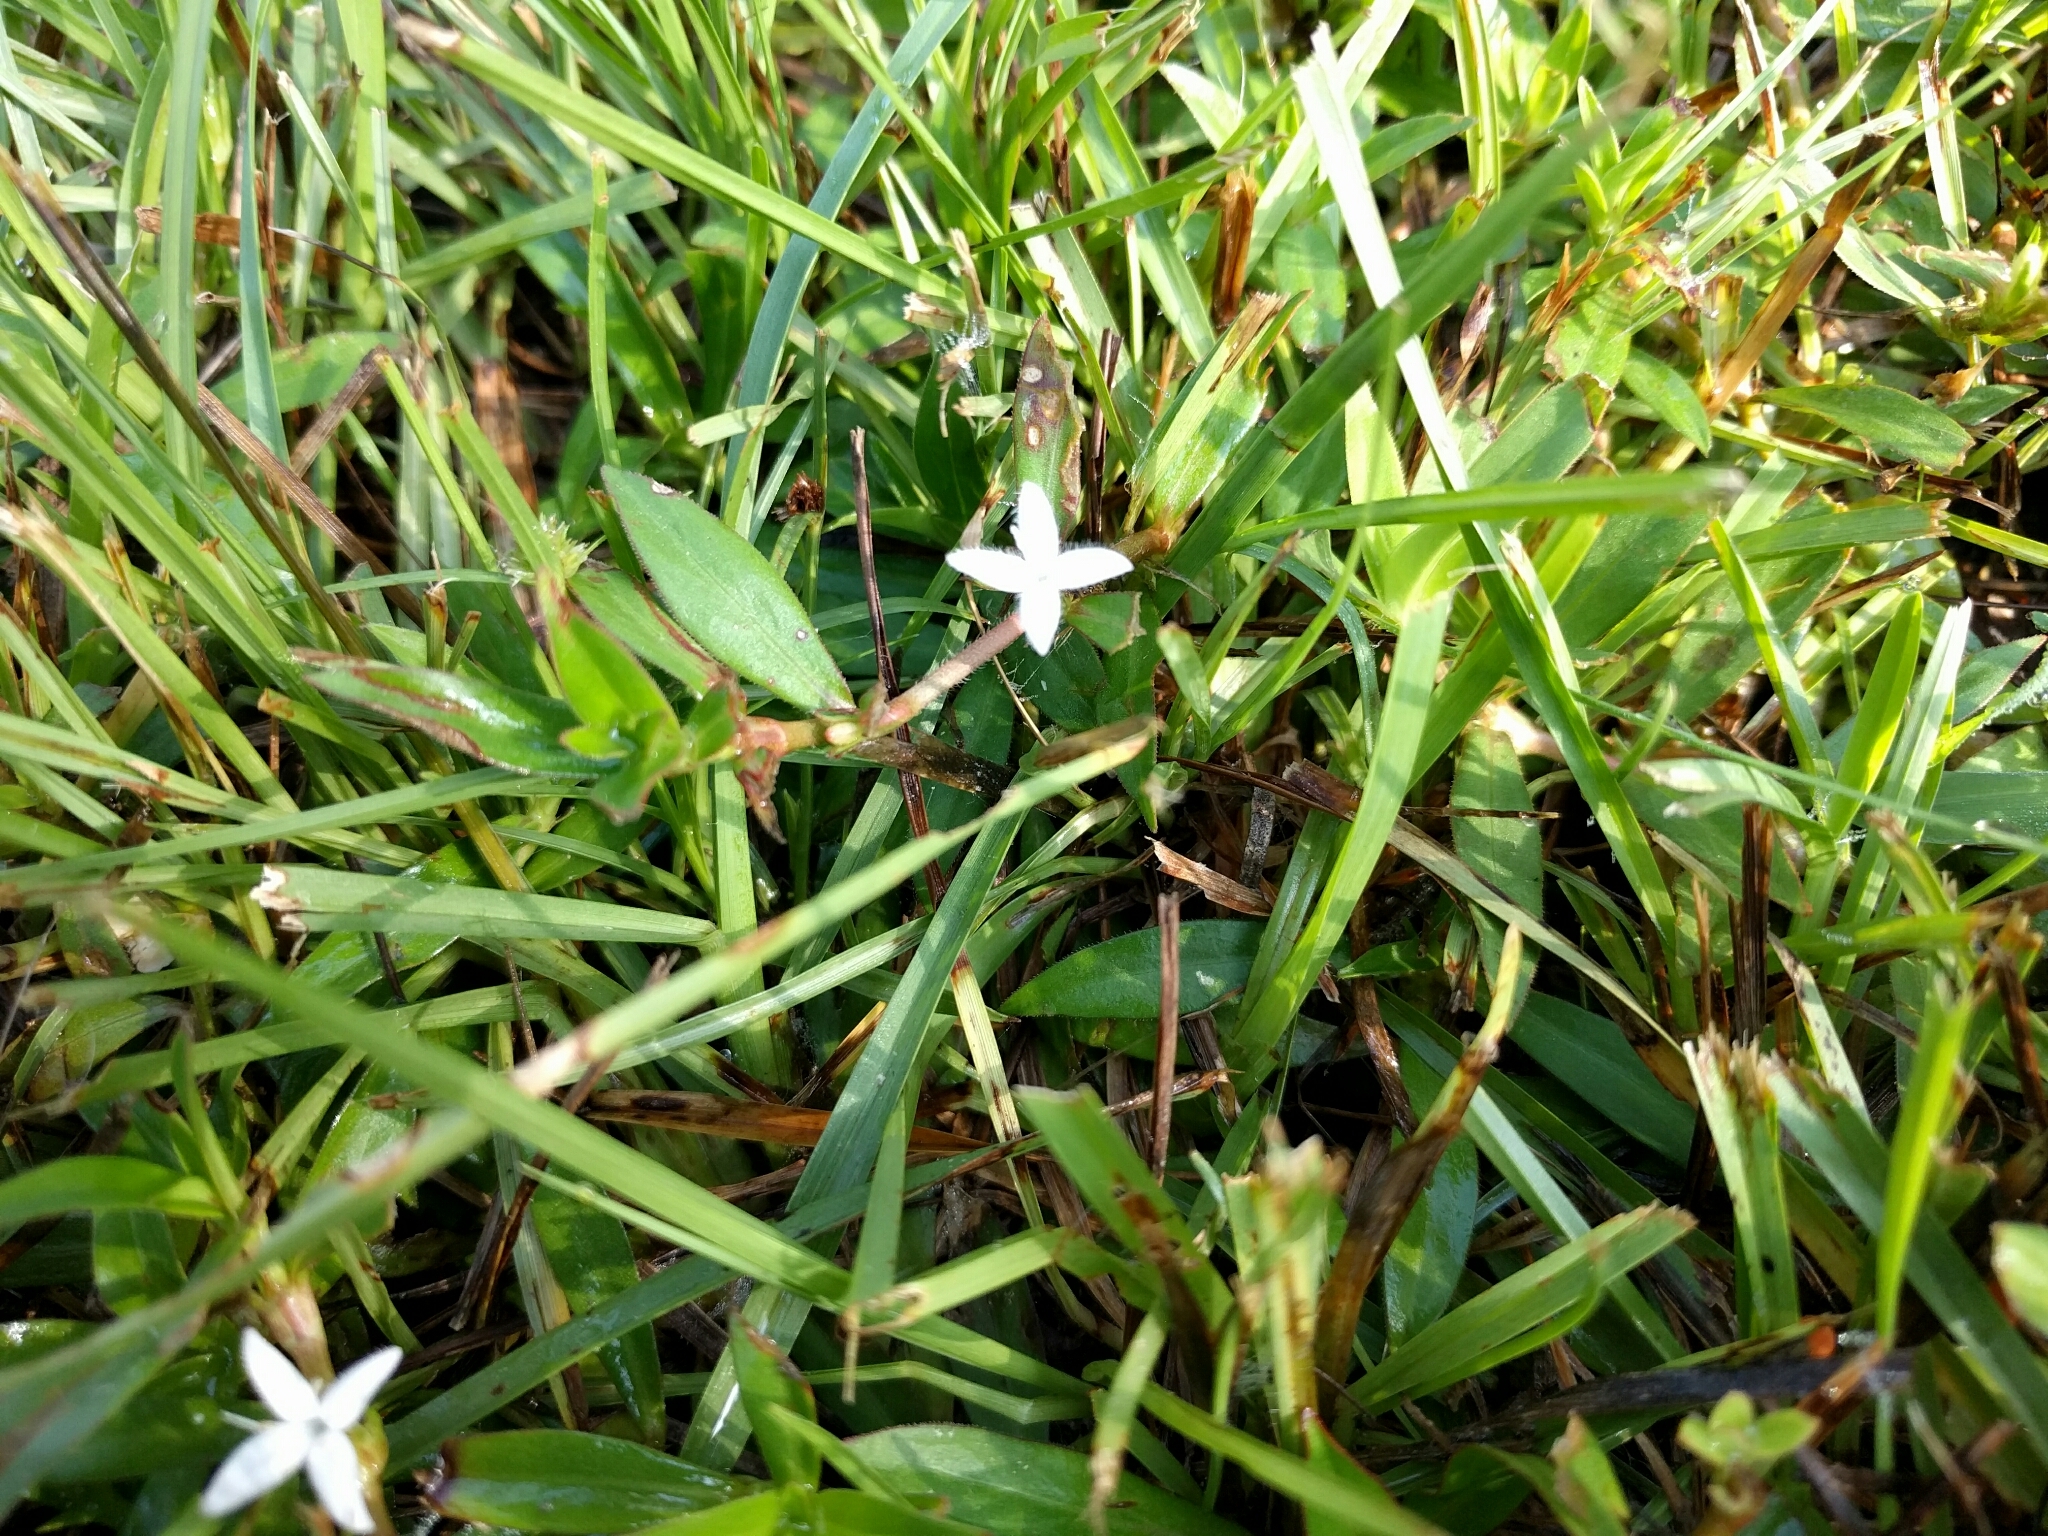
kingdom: Plantae
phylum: Tracheophyta
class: Magnoliopsida
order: Gentianales
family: Rubiaceae
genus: Diodia
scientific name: Diodia virginiana
